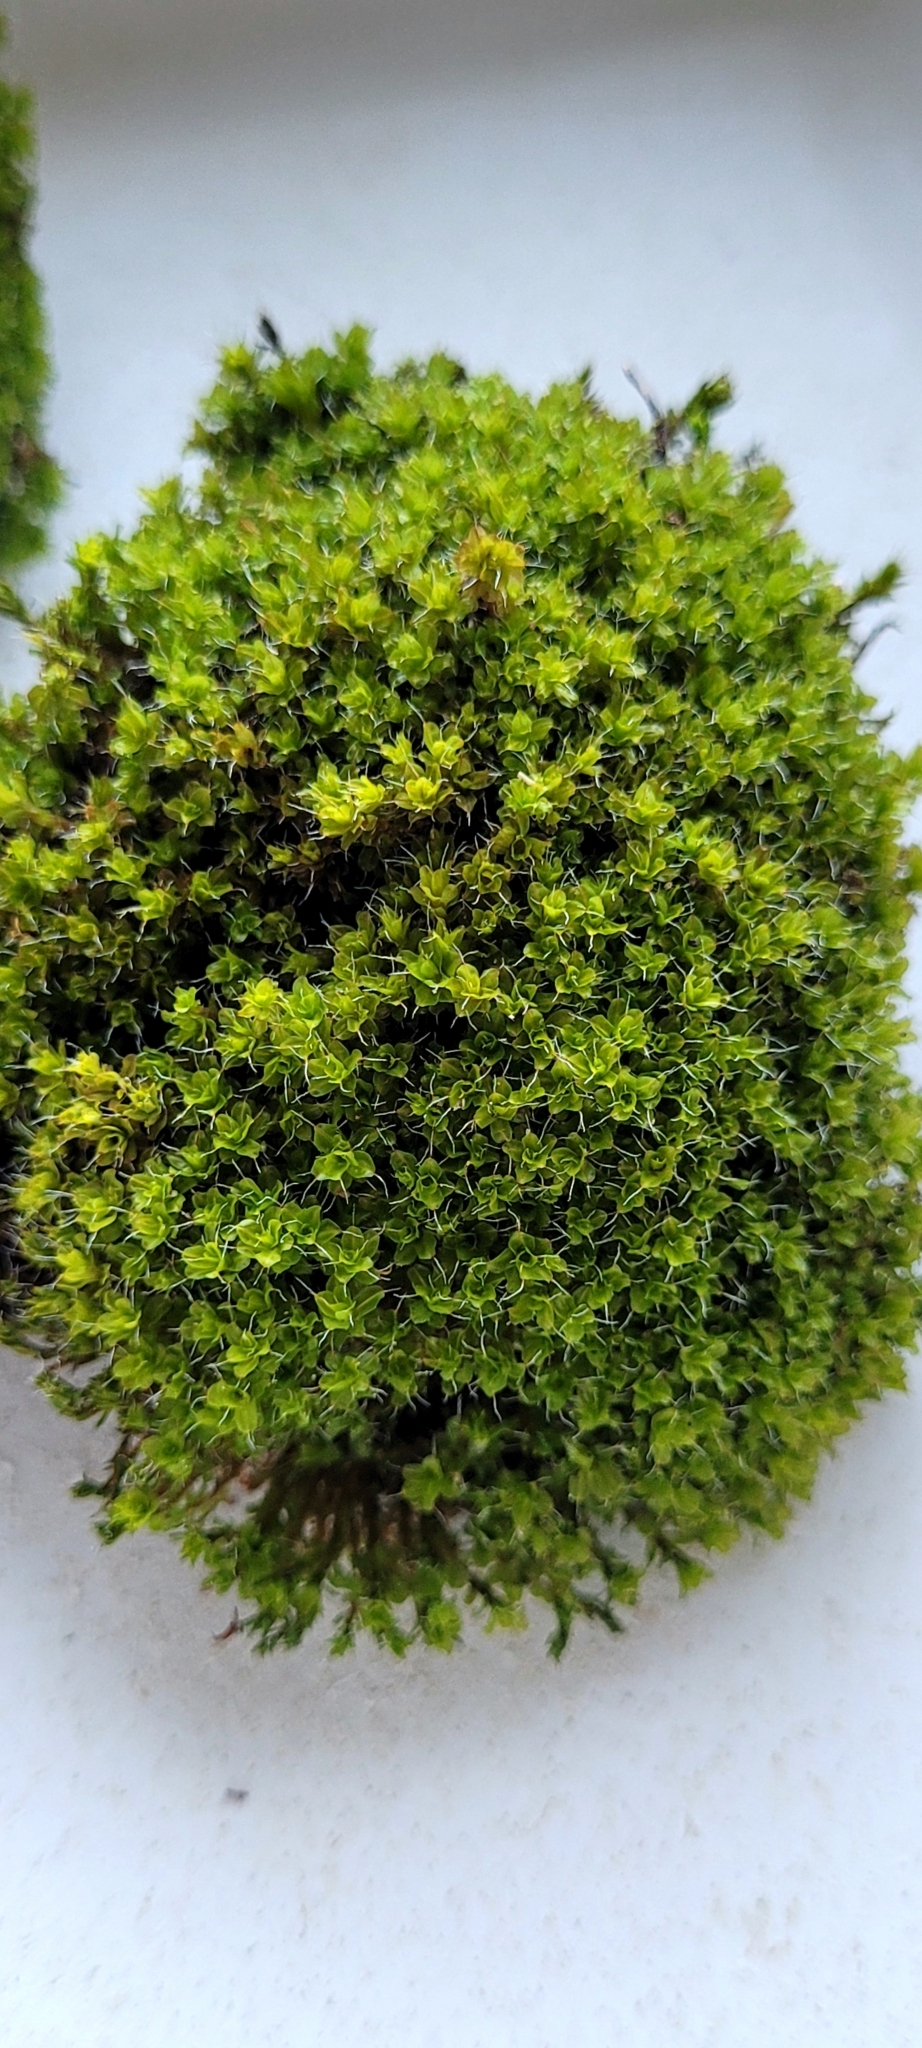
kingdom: Plantae
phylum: Bryophyta
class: Bryopsida
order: Pottiales
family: Pottiaceae
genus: Syntrichia
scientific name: Syntrichia montana
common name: Intermediate screw-moss
